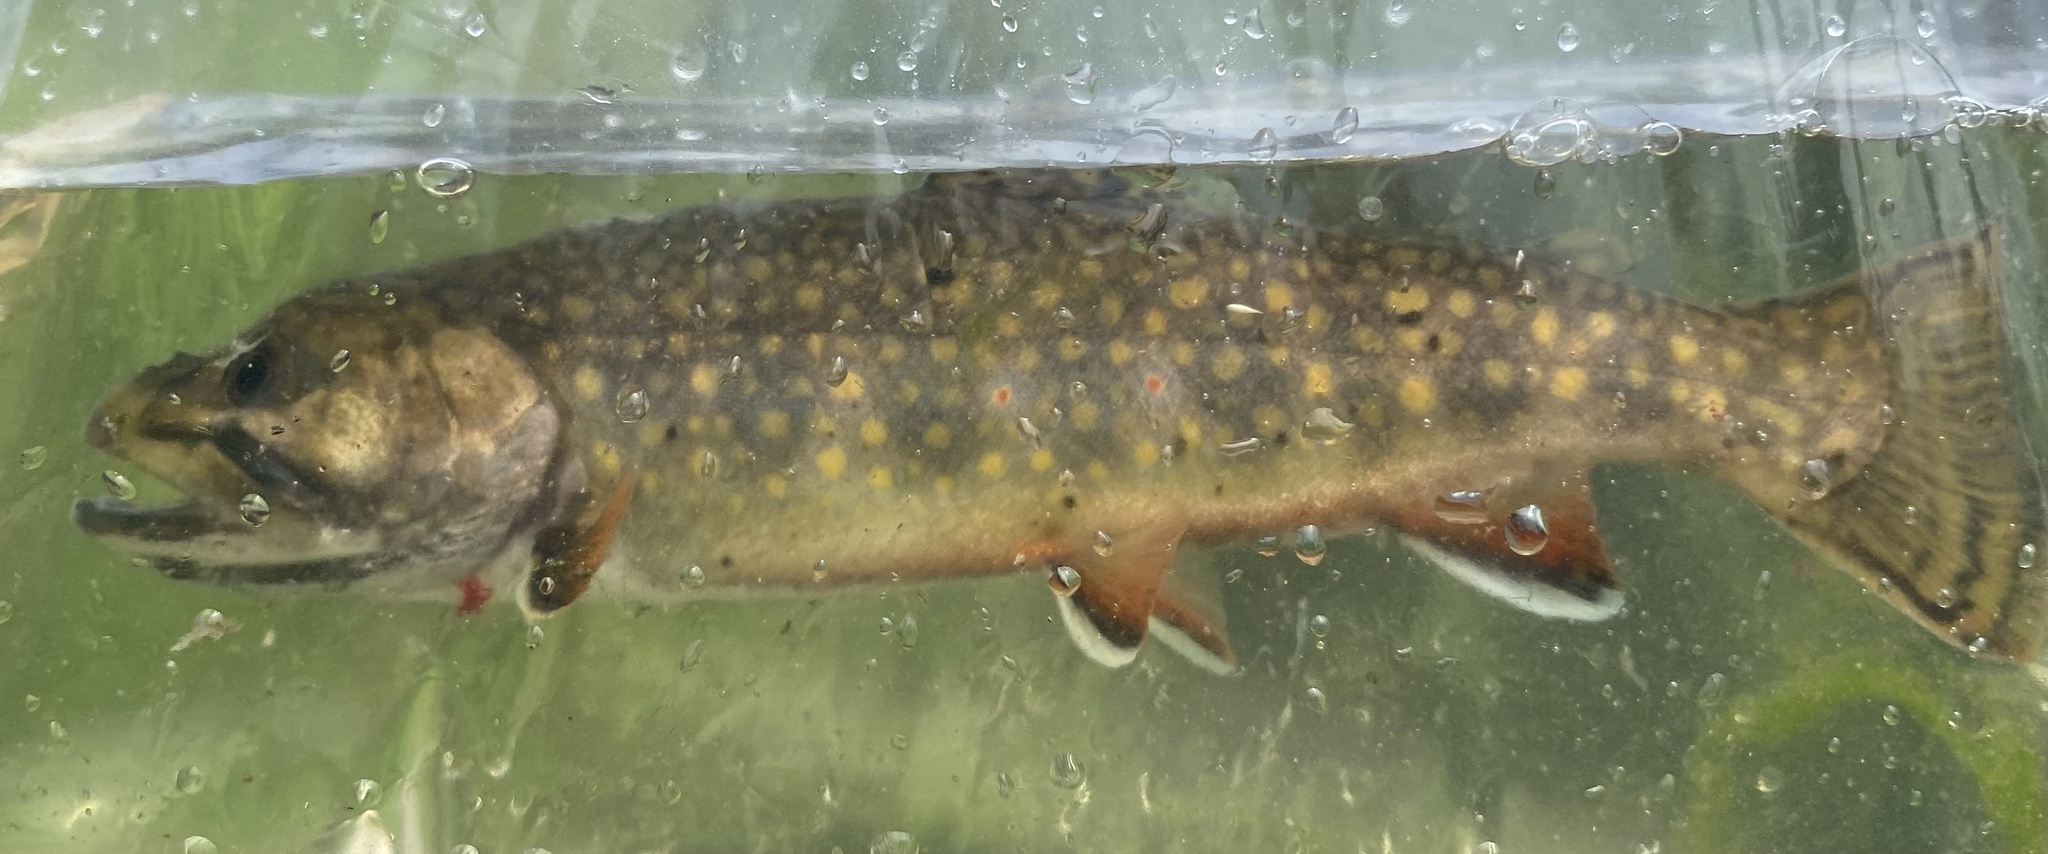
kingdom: Animalia
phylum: Chordata
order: Salmoniformes
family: Salmonidae
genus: Salvelinus
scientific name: Salvelinus fontinalis
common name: Brook trout
